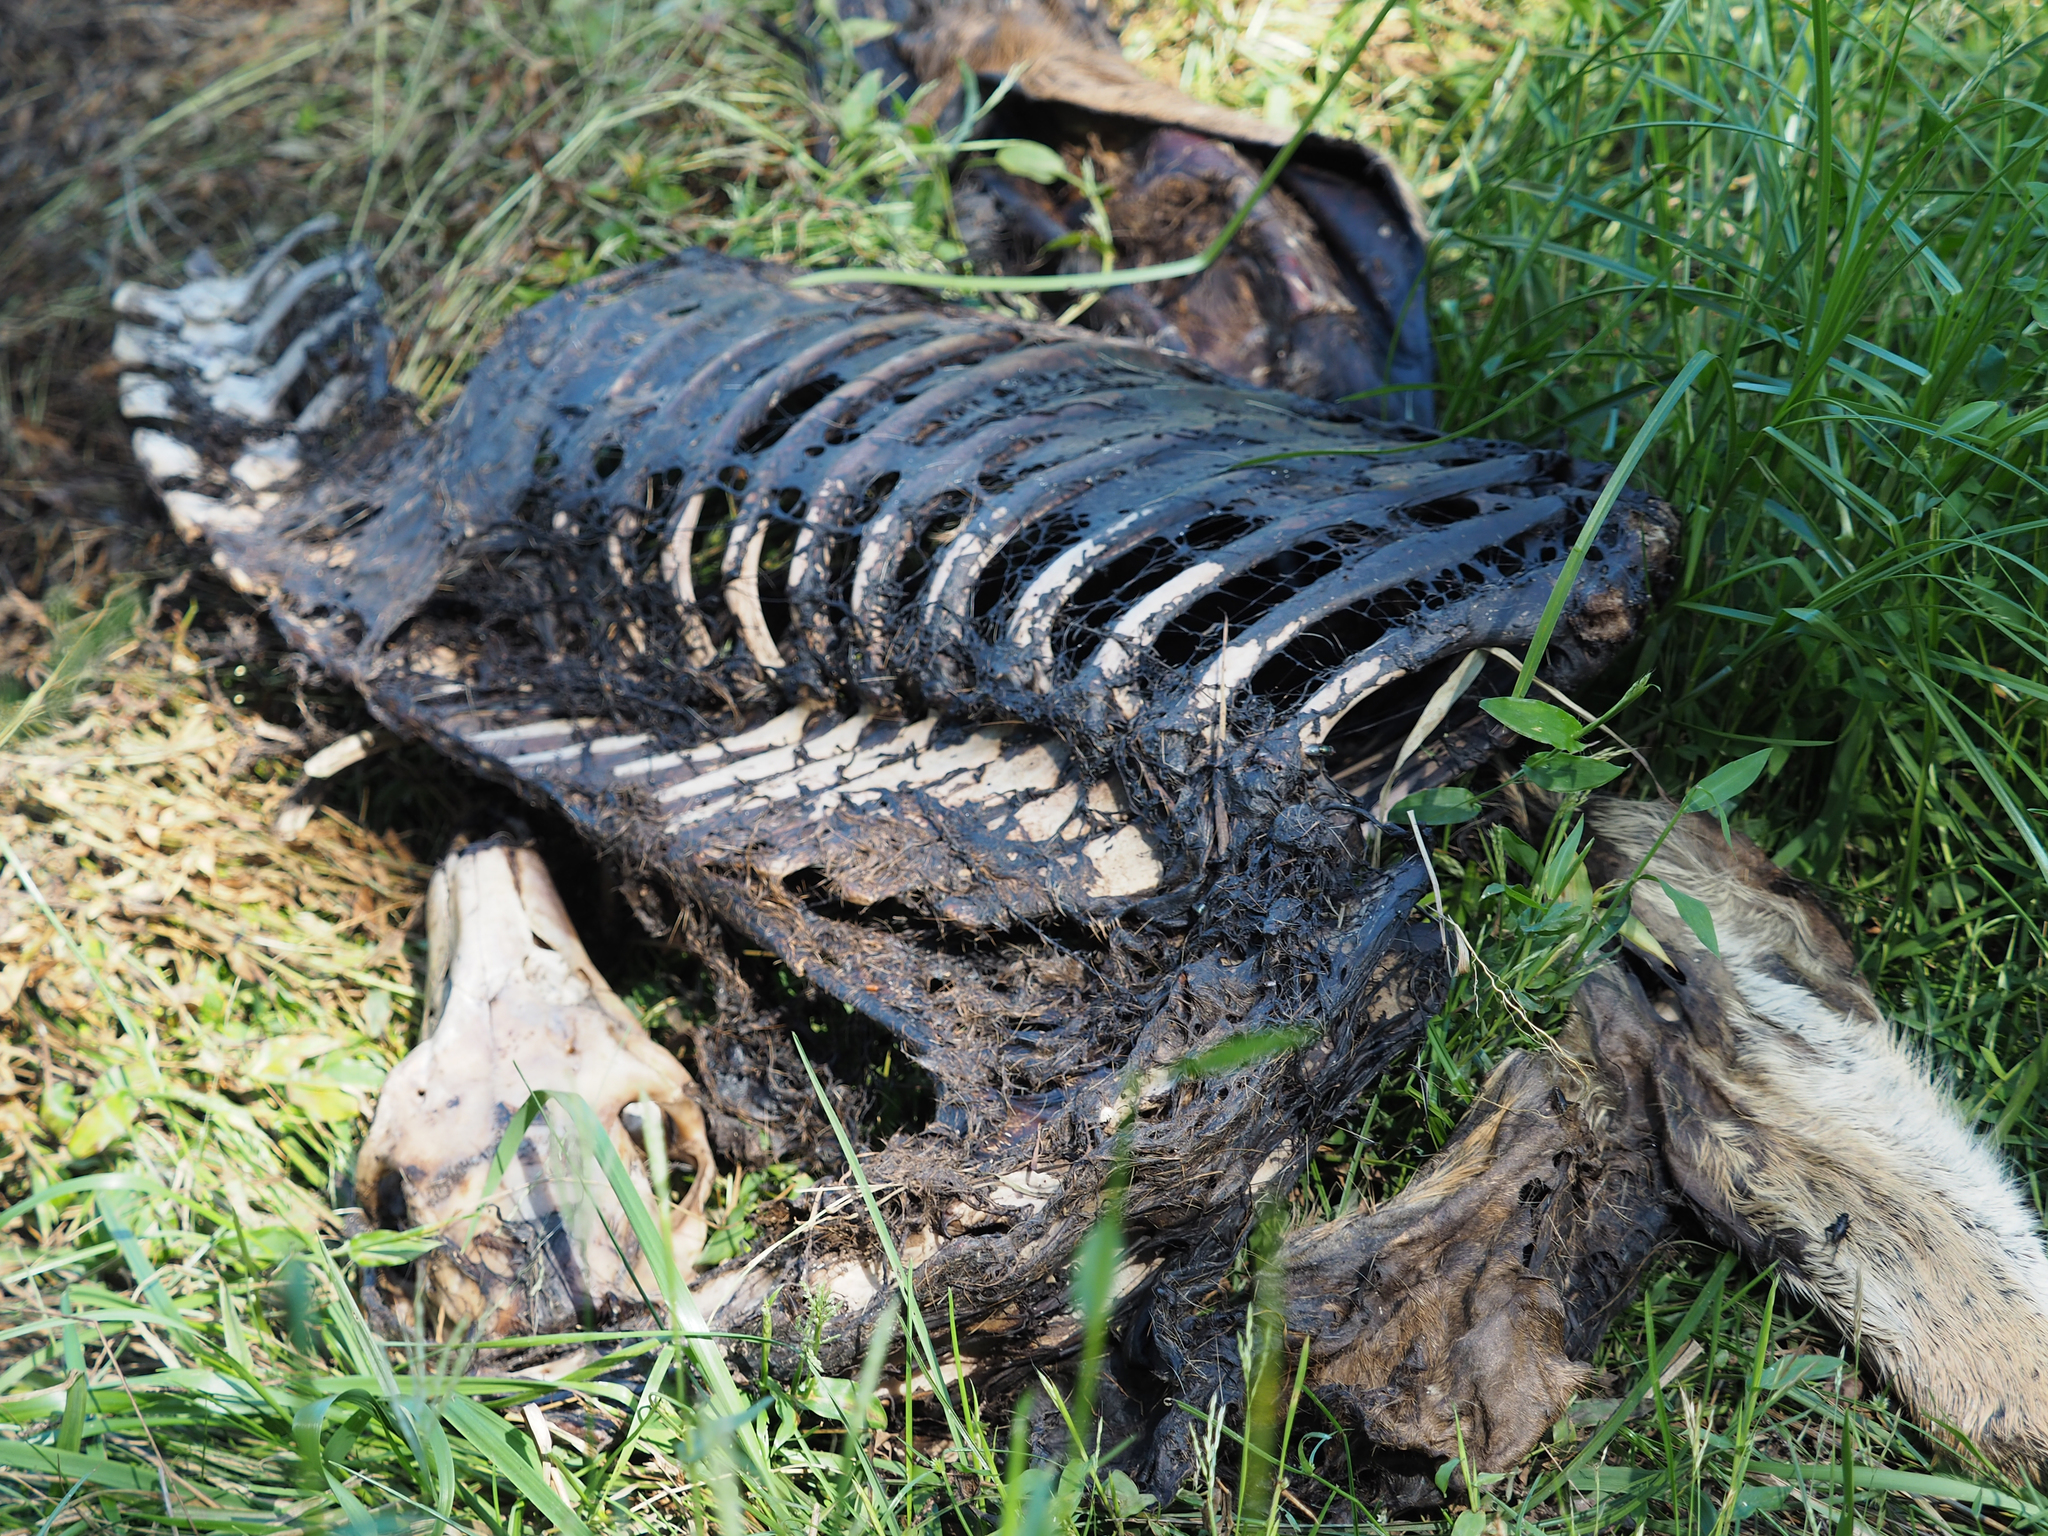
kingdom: Animalia
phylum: Chordata
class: Mammalia
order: Artiodactyla
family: Cervidae
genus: Odocoileus
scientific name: Odocoileus virginianus
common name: White-tailed deer
